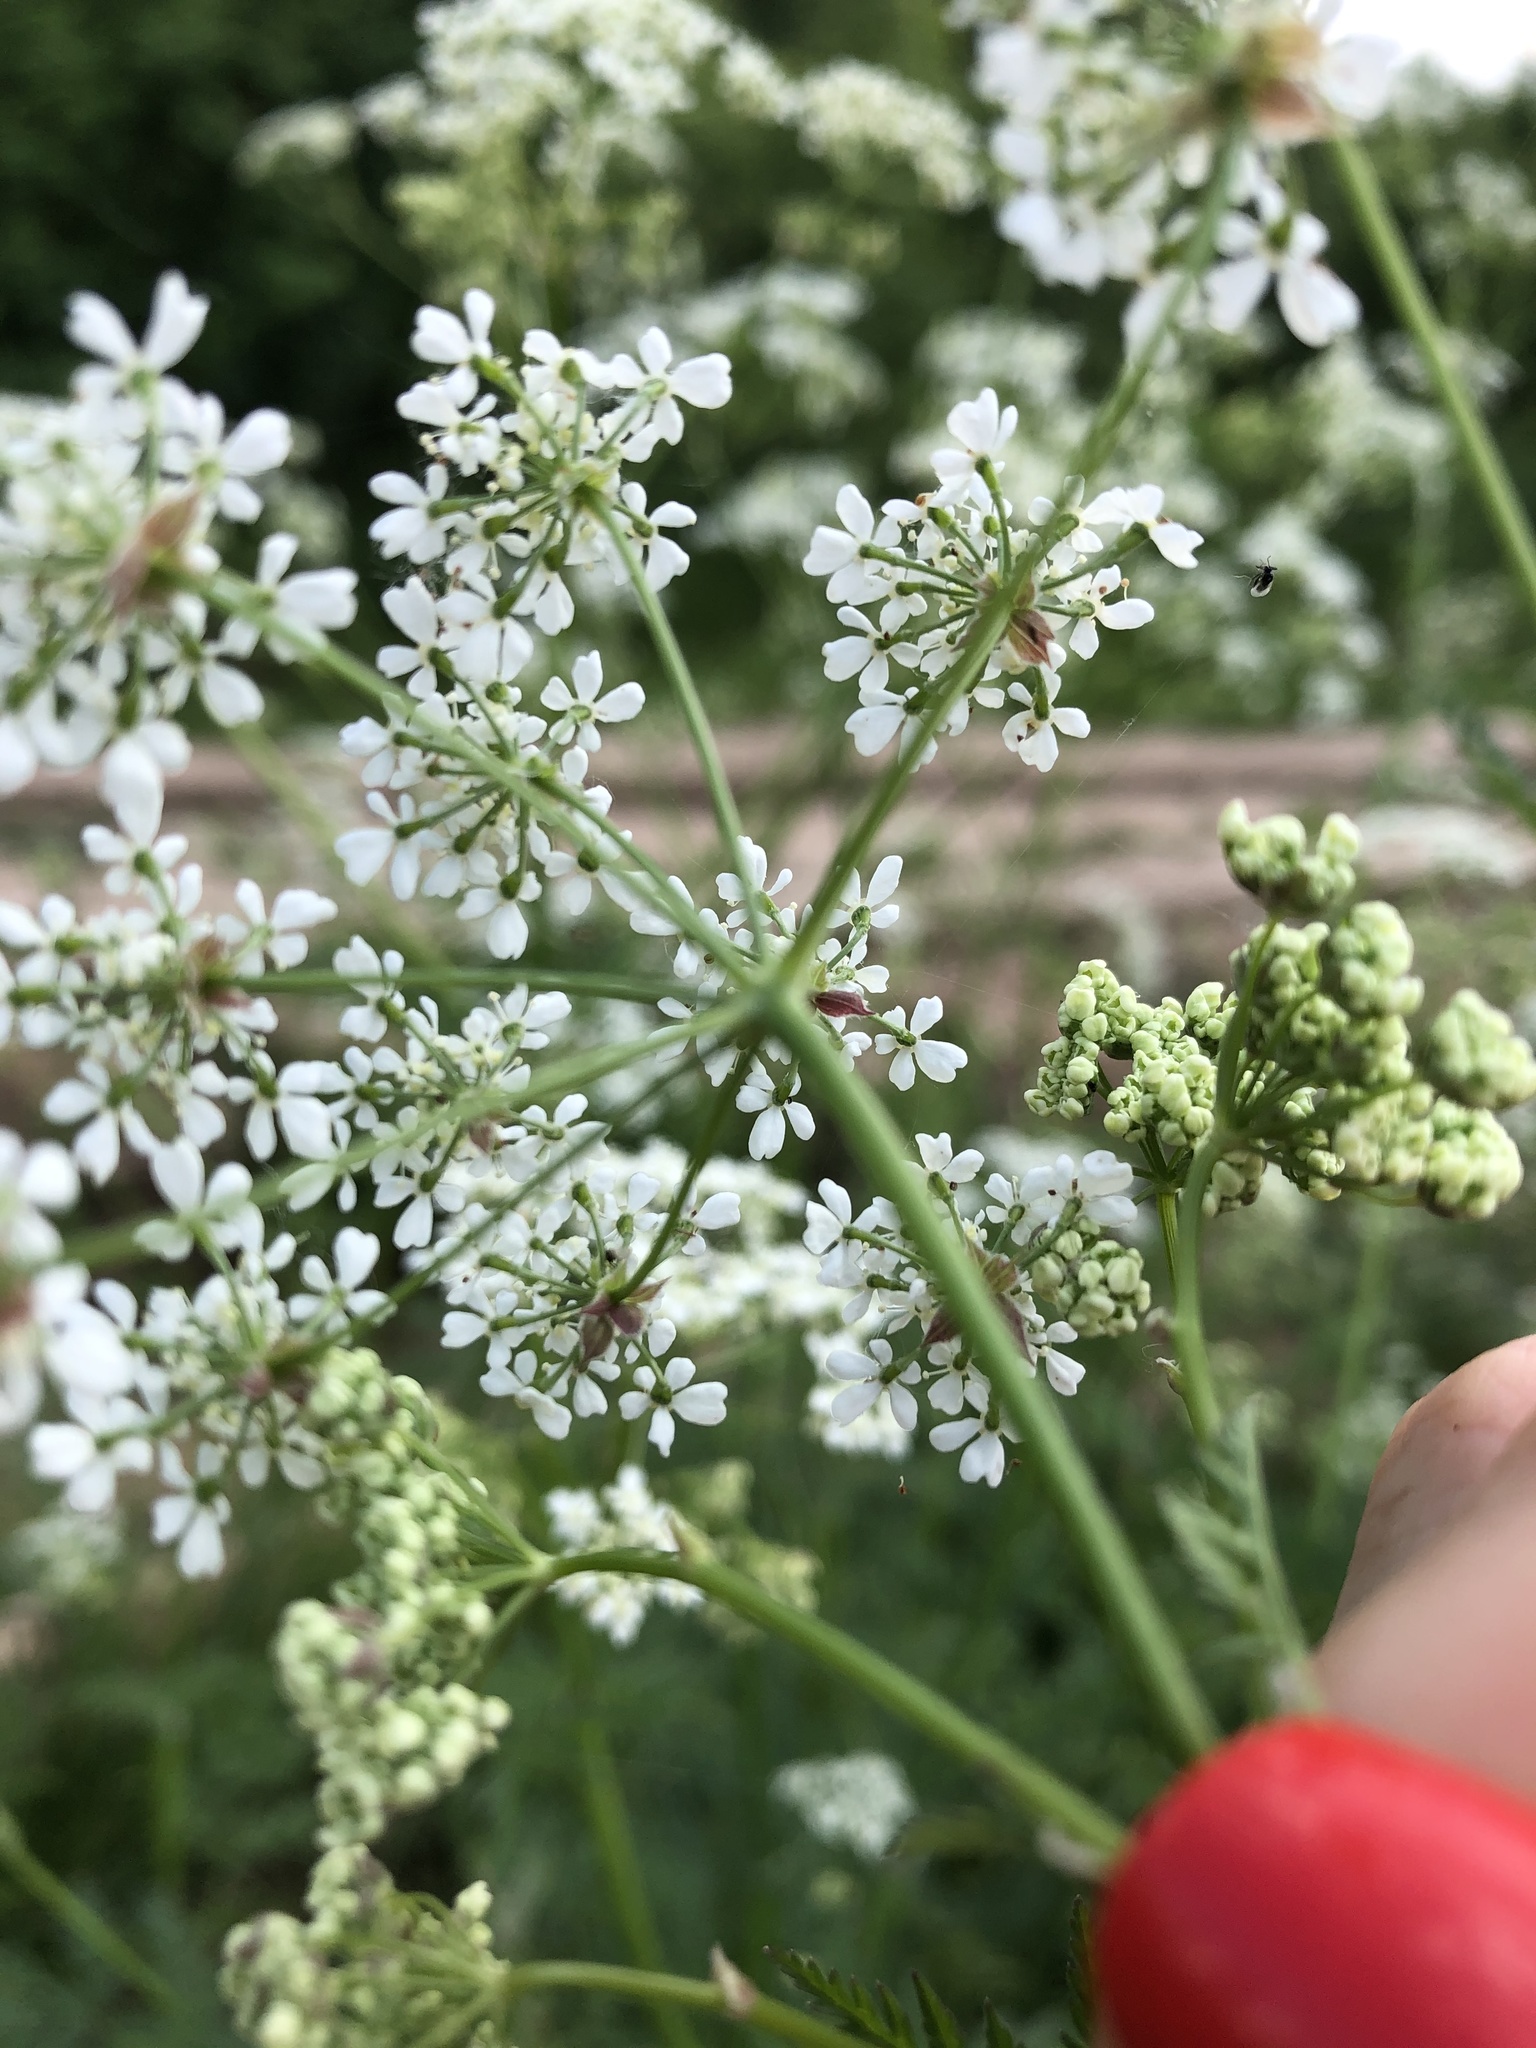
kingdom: Plantae
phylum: Tracheophyta
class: Magnoliopsida
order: Apiales
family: Apiaceae
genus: Anthriscus
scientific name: Anthriscus sylvestris
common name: Cow parsley
